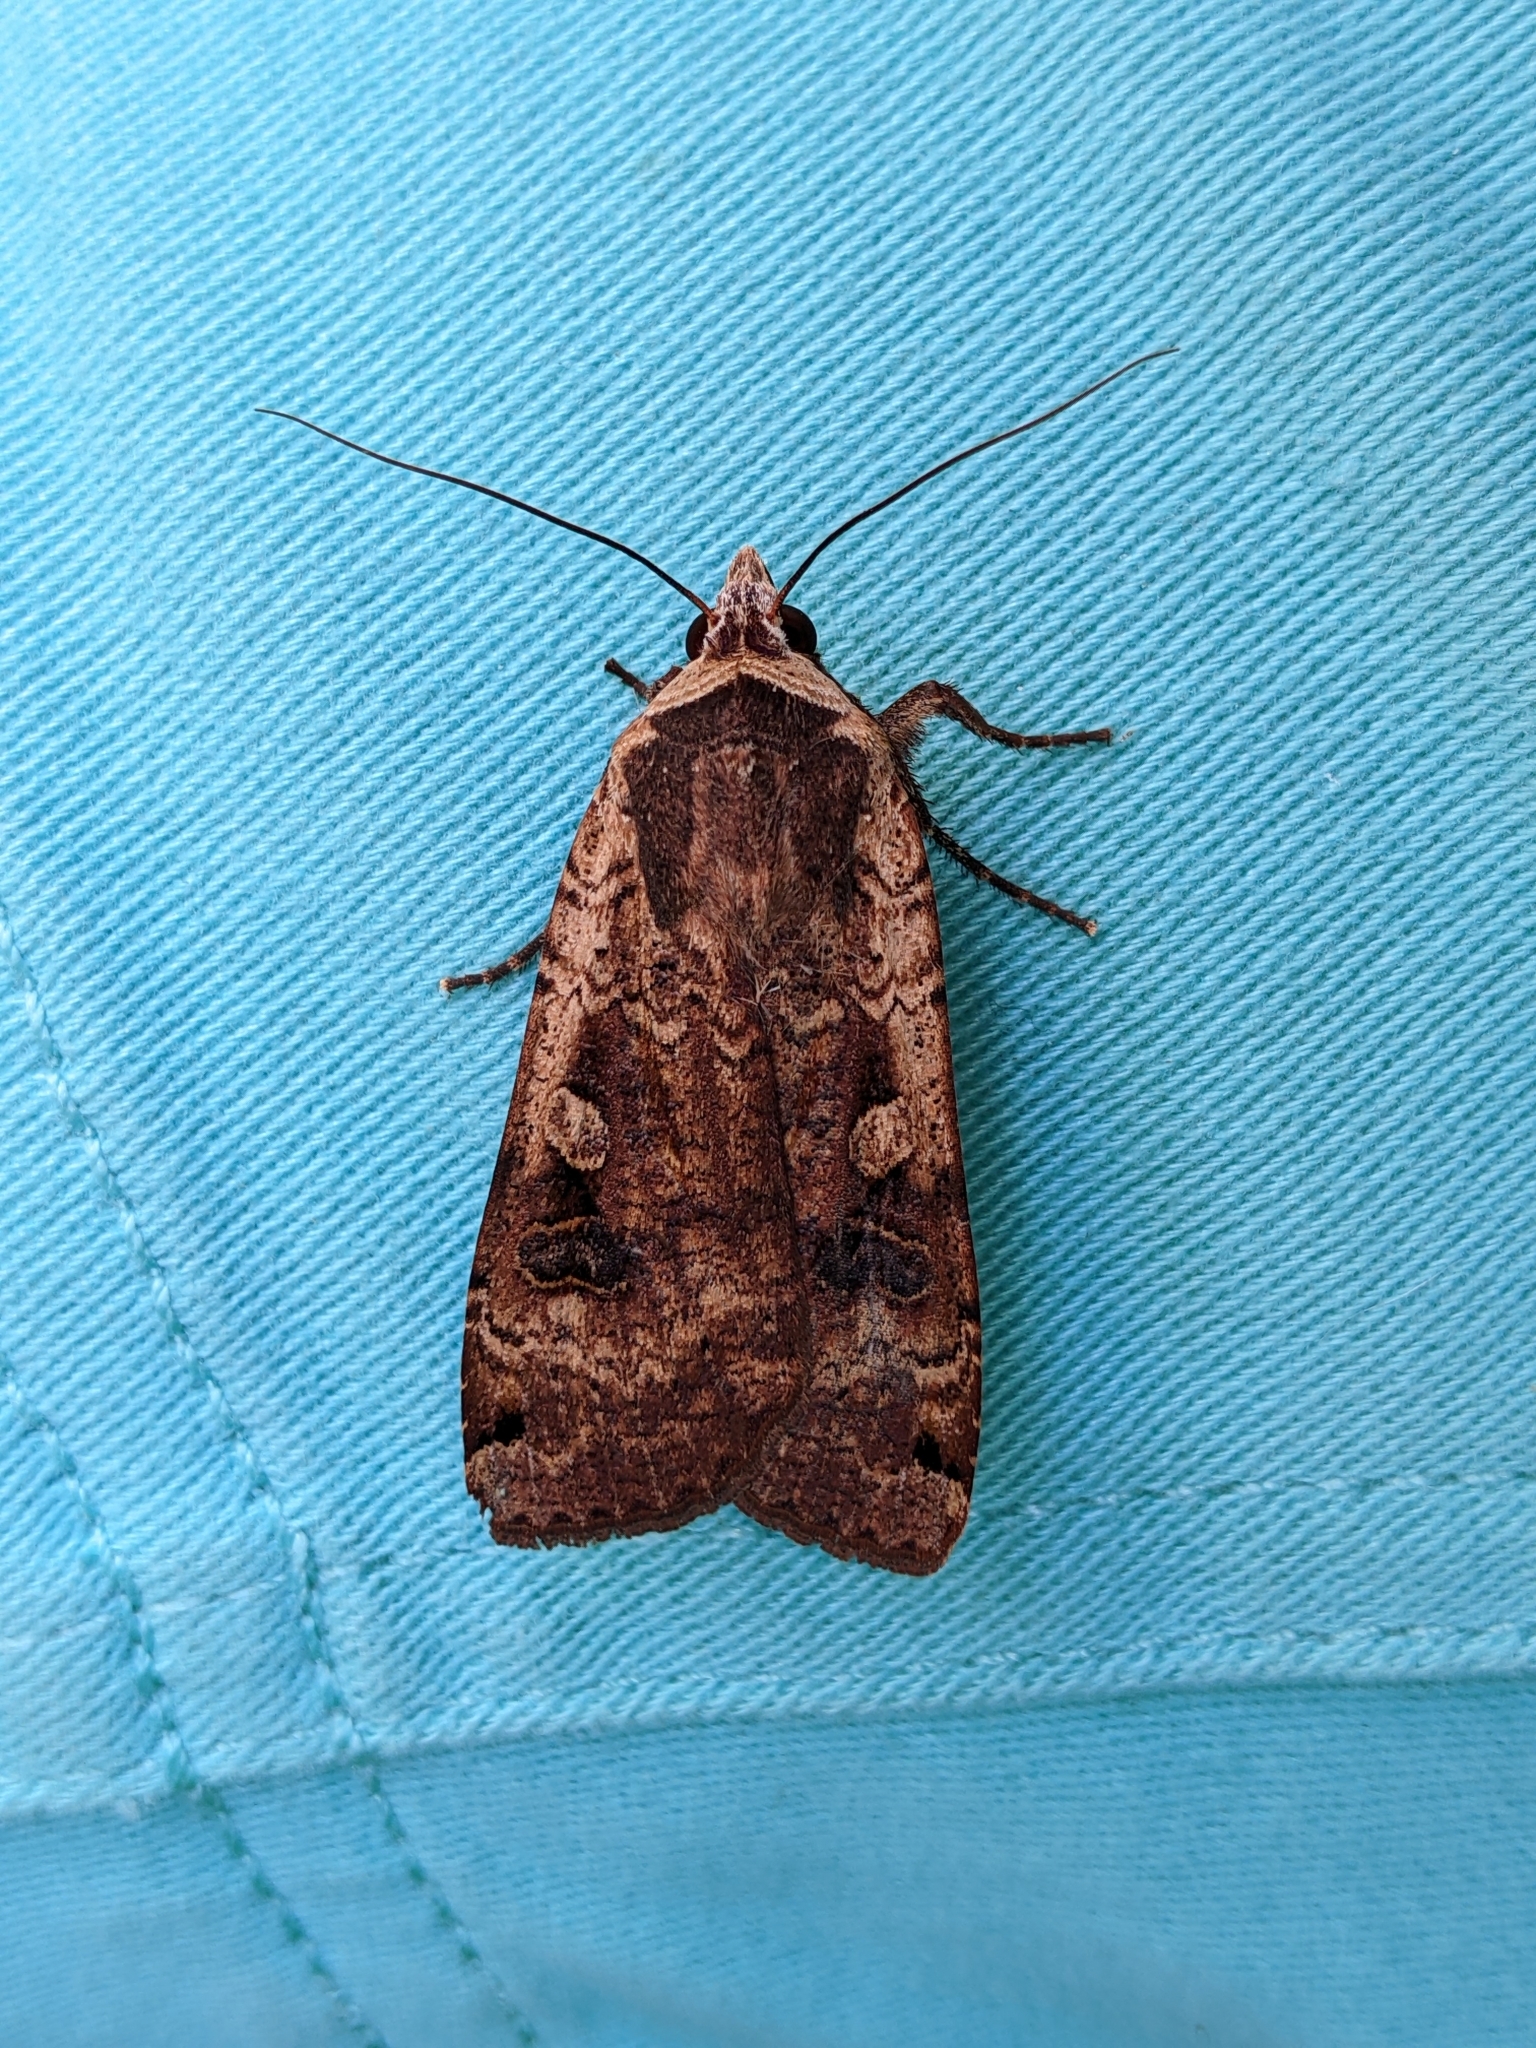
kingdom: Animalia
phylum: Arthropoda
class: Insecta
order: Lepidoptera
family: Noctuidae
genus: Noctua
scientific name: Noctua pronuba
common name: Large yellow underwing
